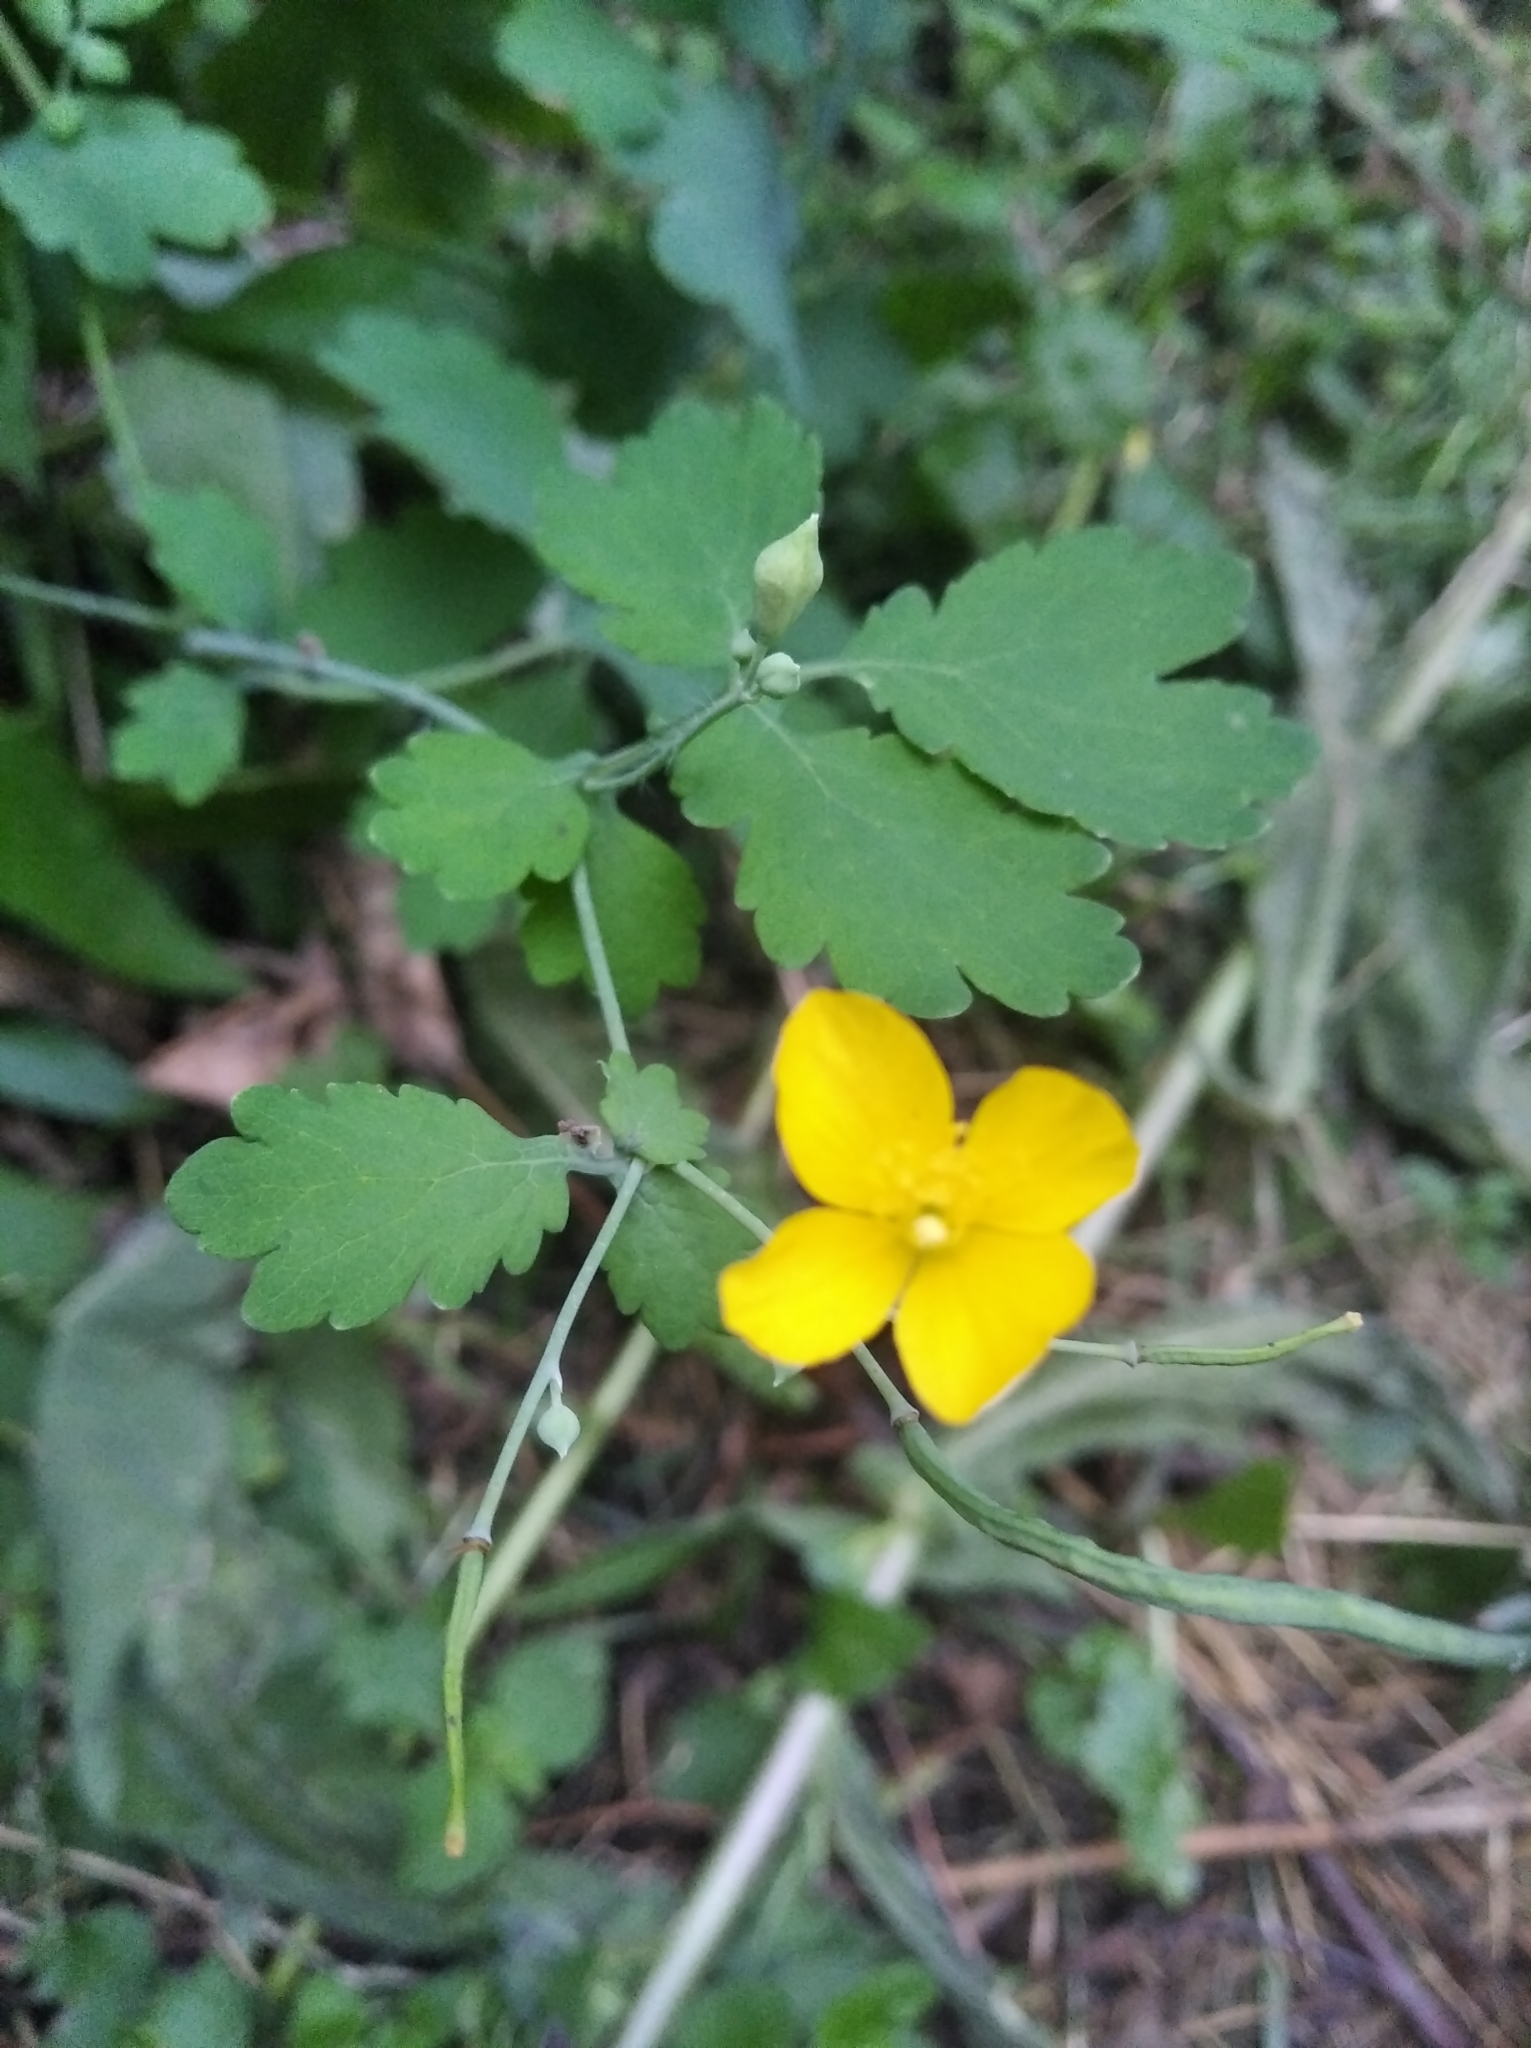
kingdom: Plantae
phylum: Tracheophyta
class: Magnoliopsida
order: Ranunculales
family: Papaveraceae
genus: Chelidonium
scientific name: Chelidonium majus
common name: Greater celandine
